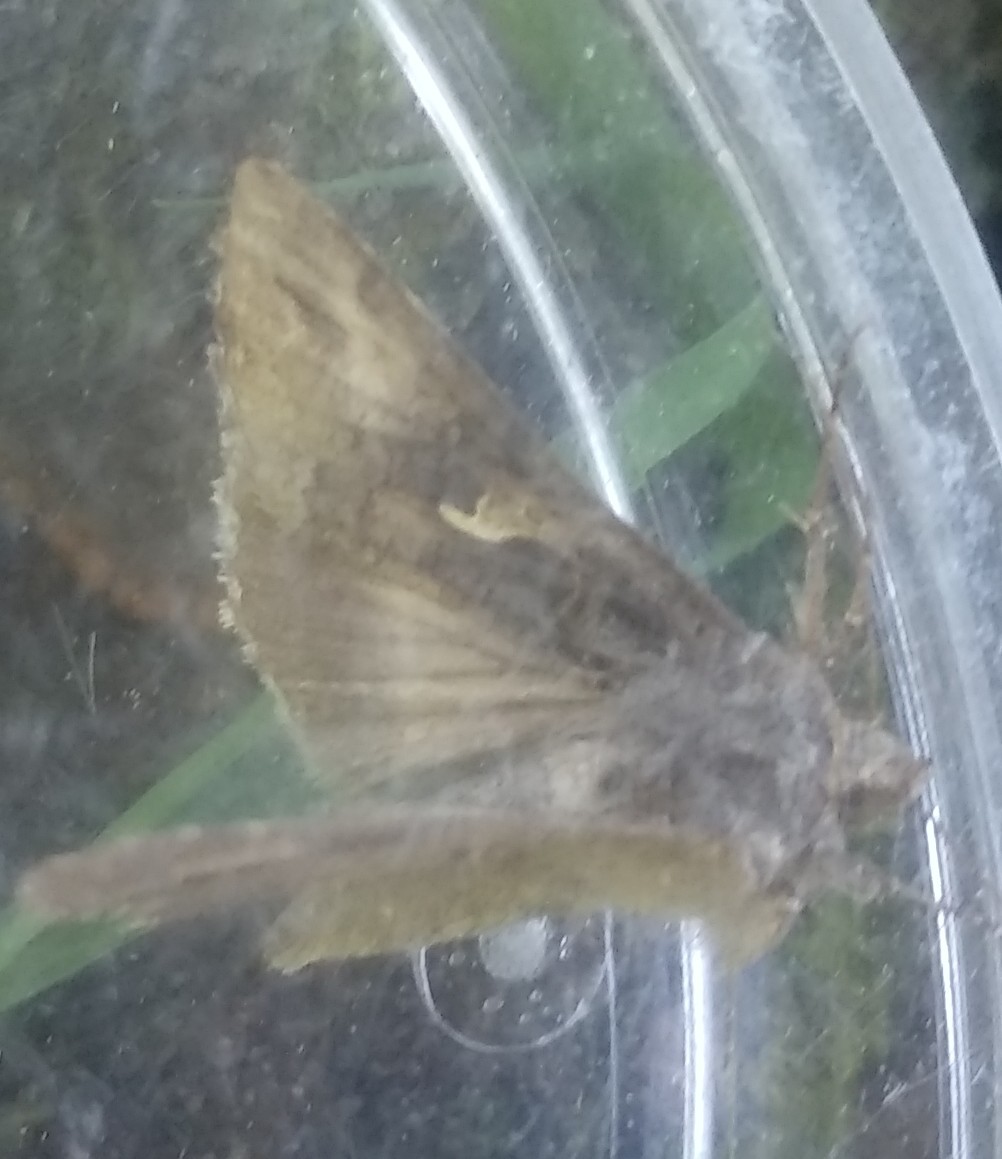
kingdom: Animalia
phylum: Arthropoda
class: Insecta
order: Lepidoptera
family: Noctuidae
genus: Autographa
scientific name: Autographa gamma
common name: Silver y
